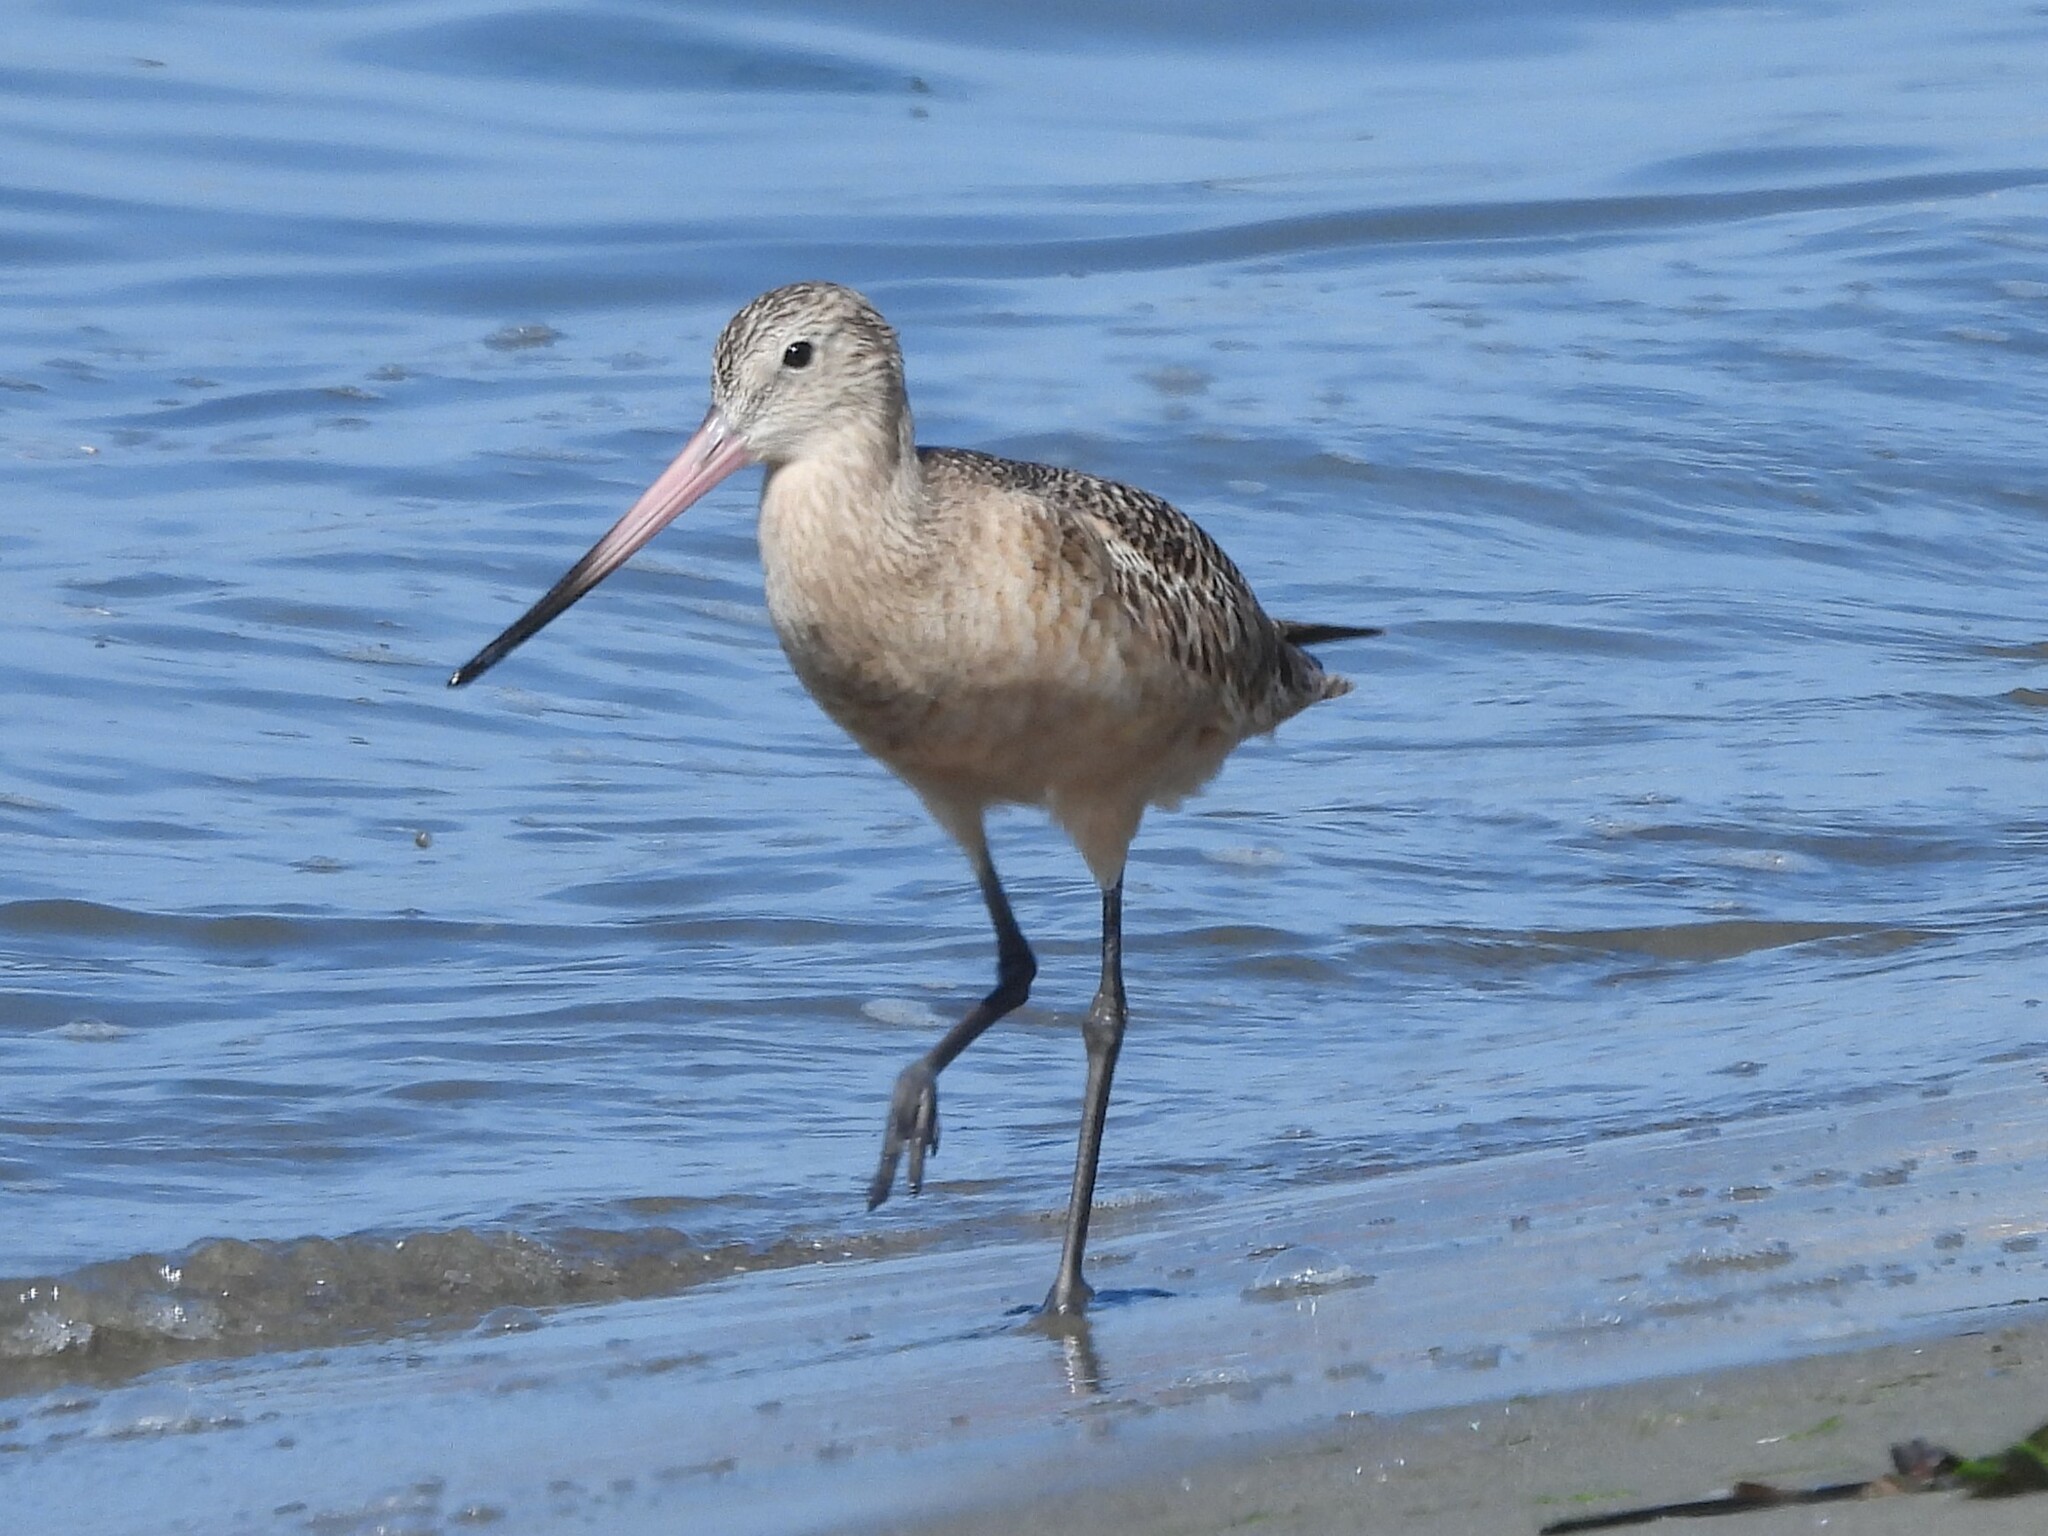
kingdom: Animalia
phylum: Chordata
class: Aves
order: Charadriiformes
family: Scolopacidae
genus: Limosa
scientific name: Limosa fedoa
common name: Marbled godwit
